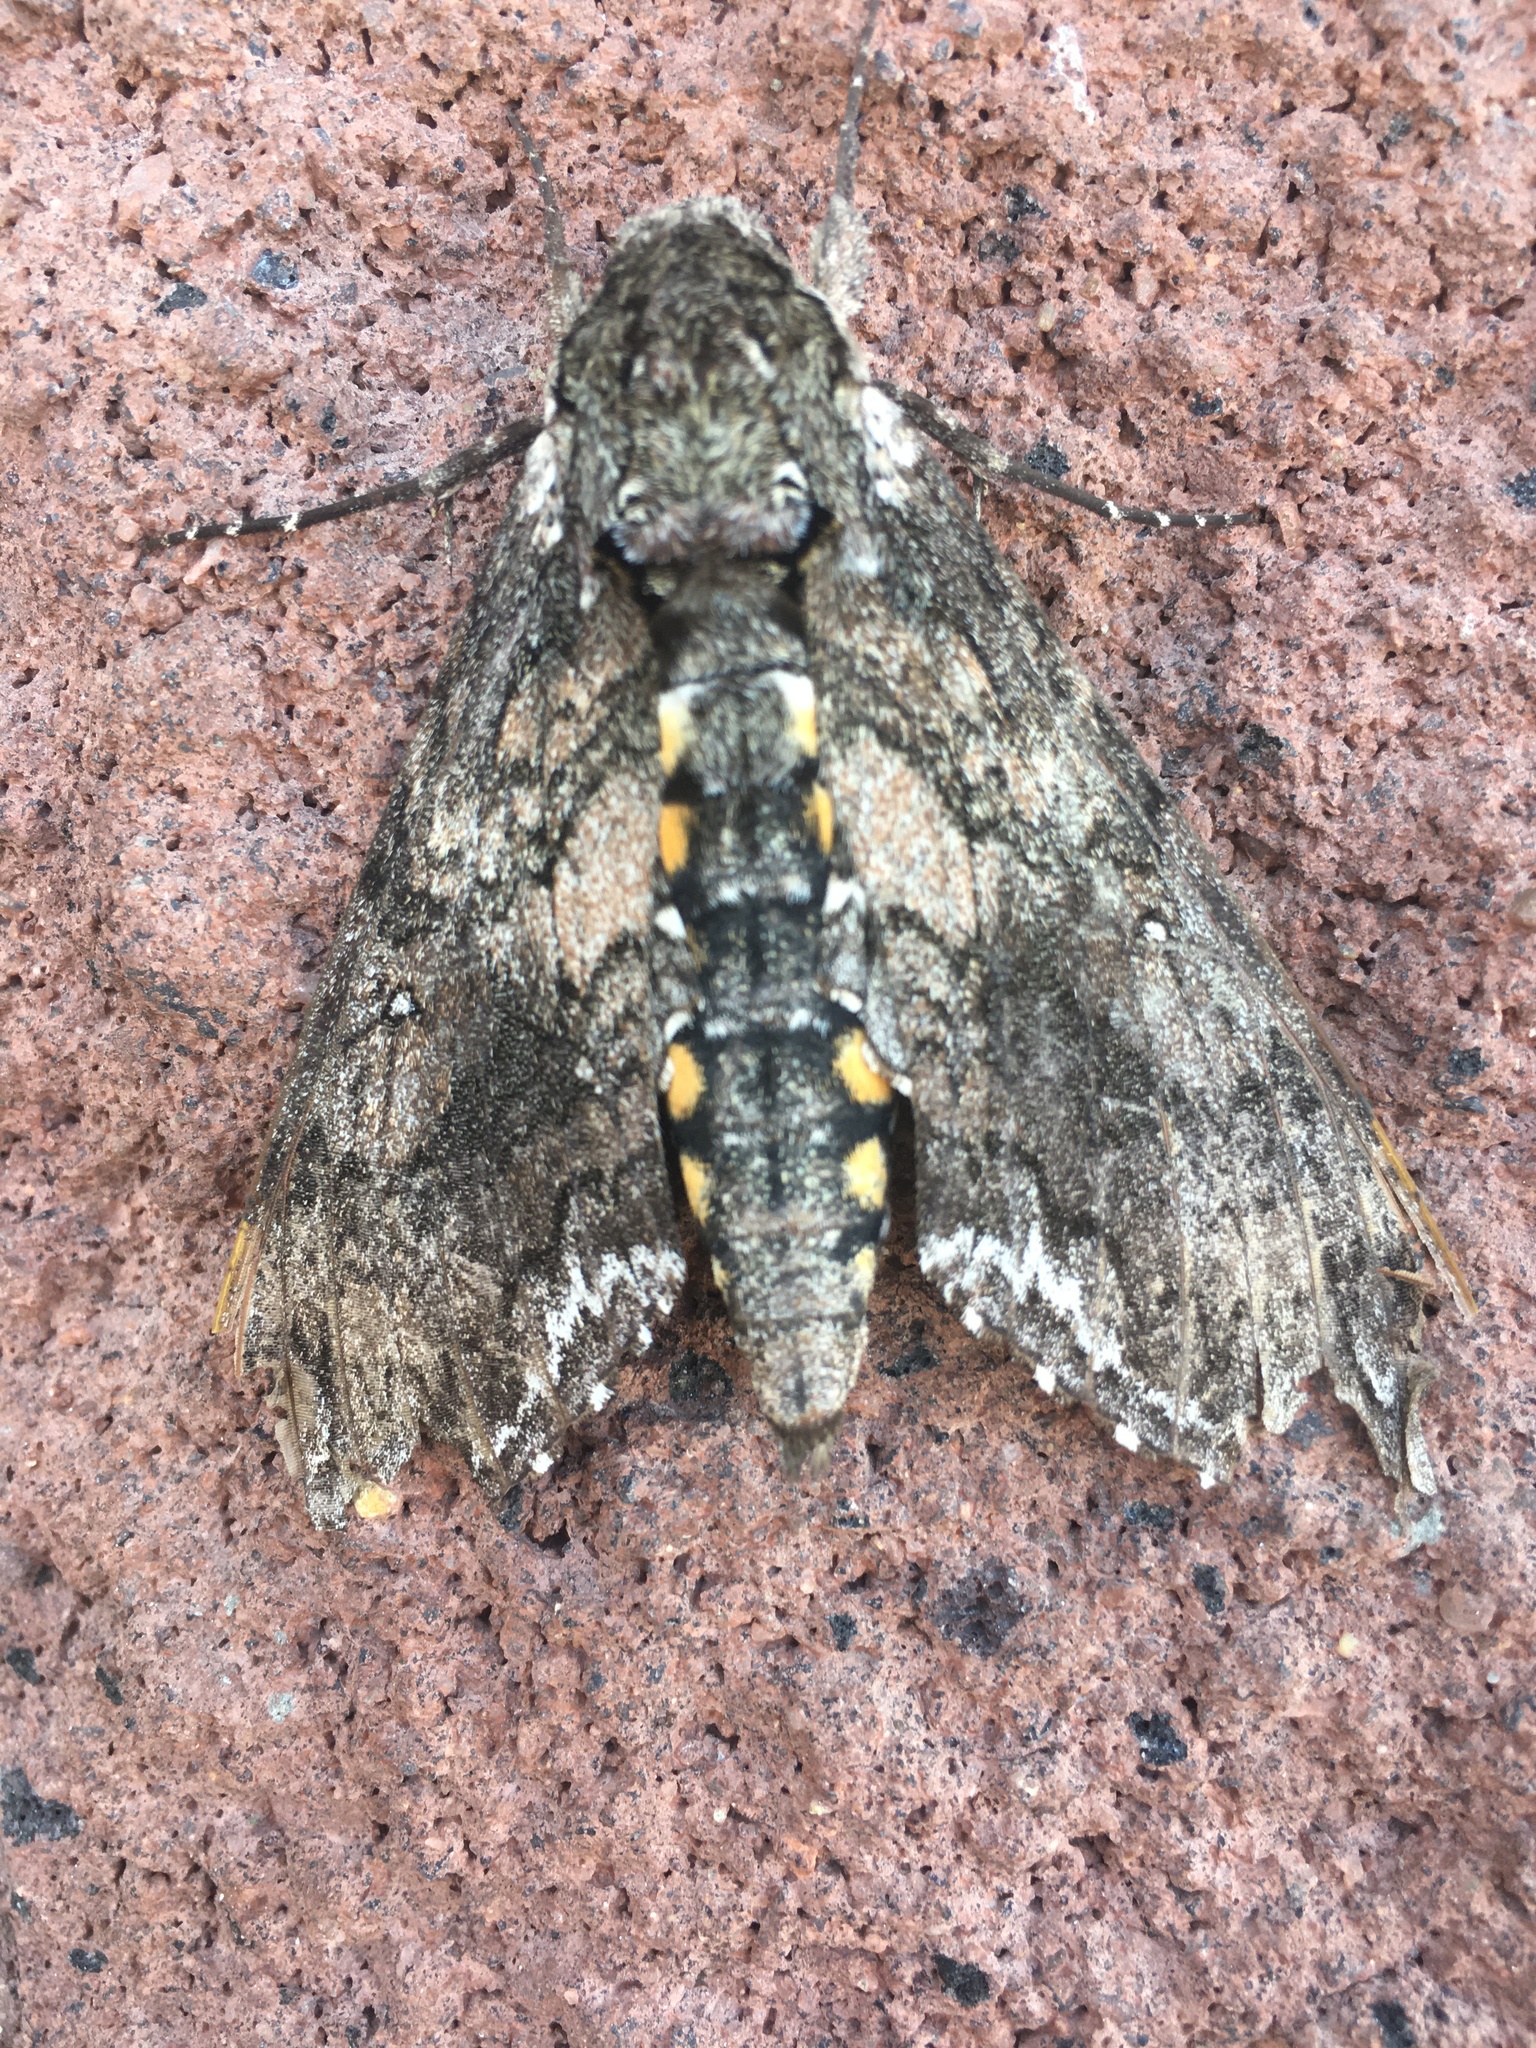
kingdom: Animalia
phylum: Arthropoda
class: Insecta
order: Lepidoptera
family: Sphingidae
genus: Manduca
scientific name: Manduca sexta
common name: Carolina sphinx
